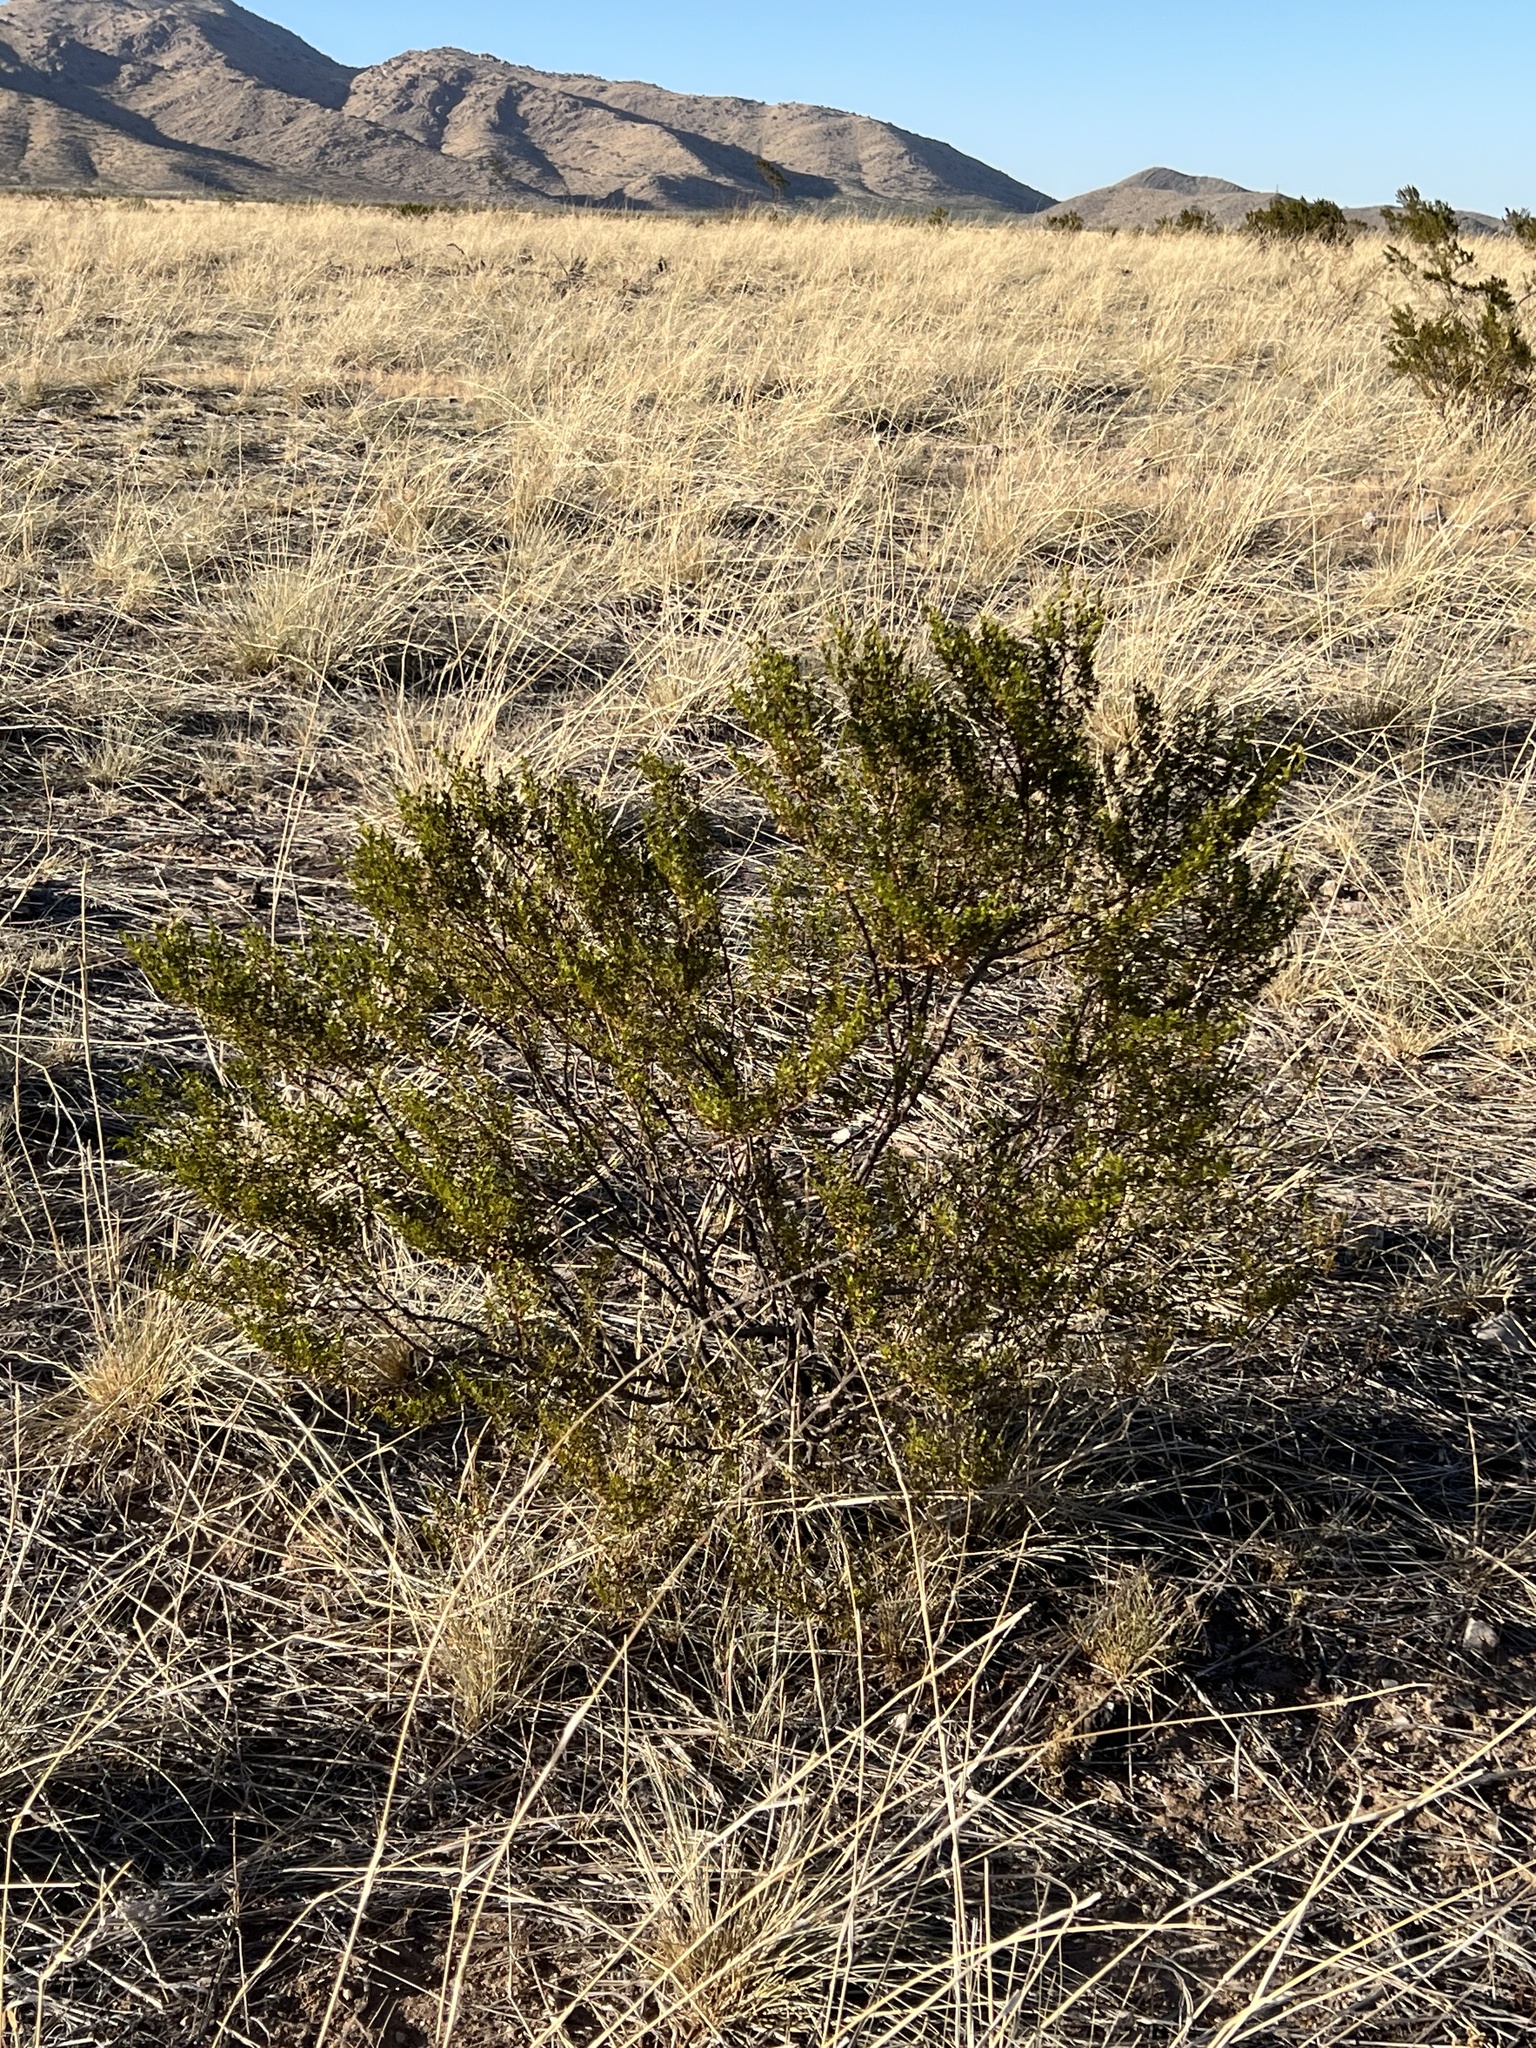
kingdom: Plantae
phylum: Tracheophyta
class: Magnoliopsida
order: Zygophyllales
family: Zygophyllaceae
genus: Larrea
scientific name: Larrea tridentata
